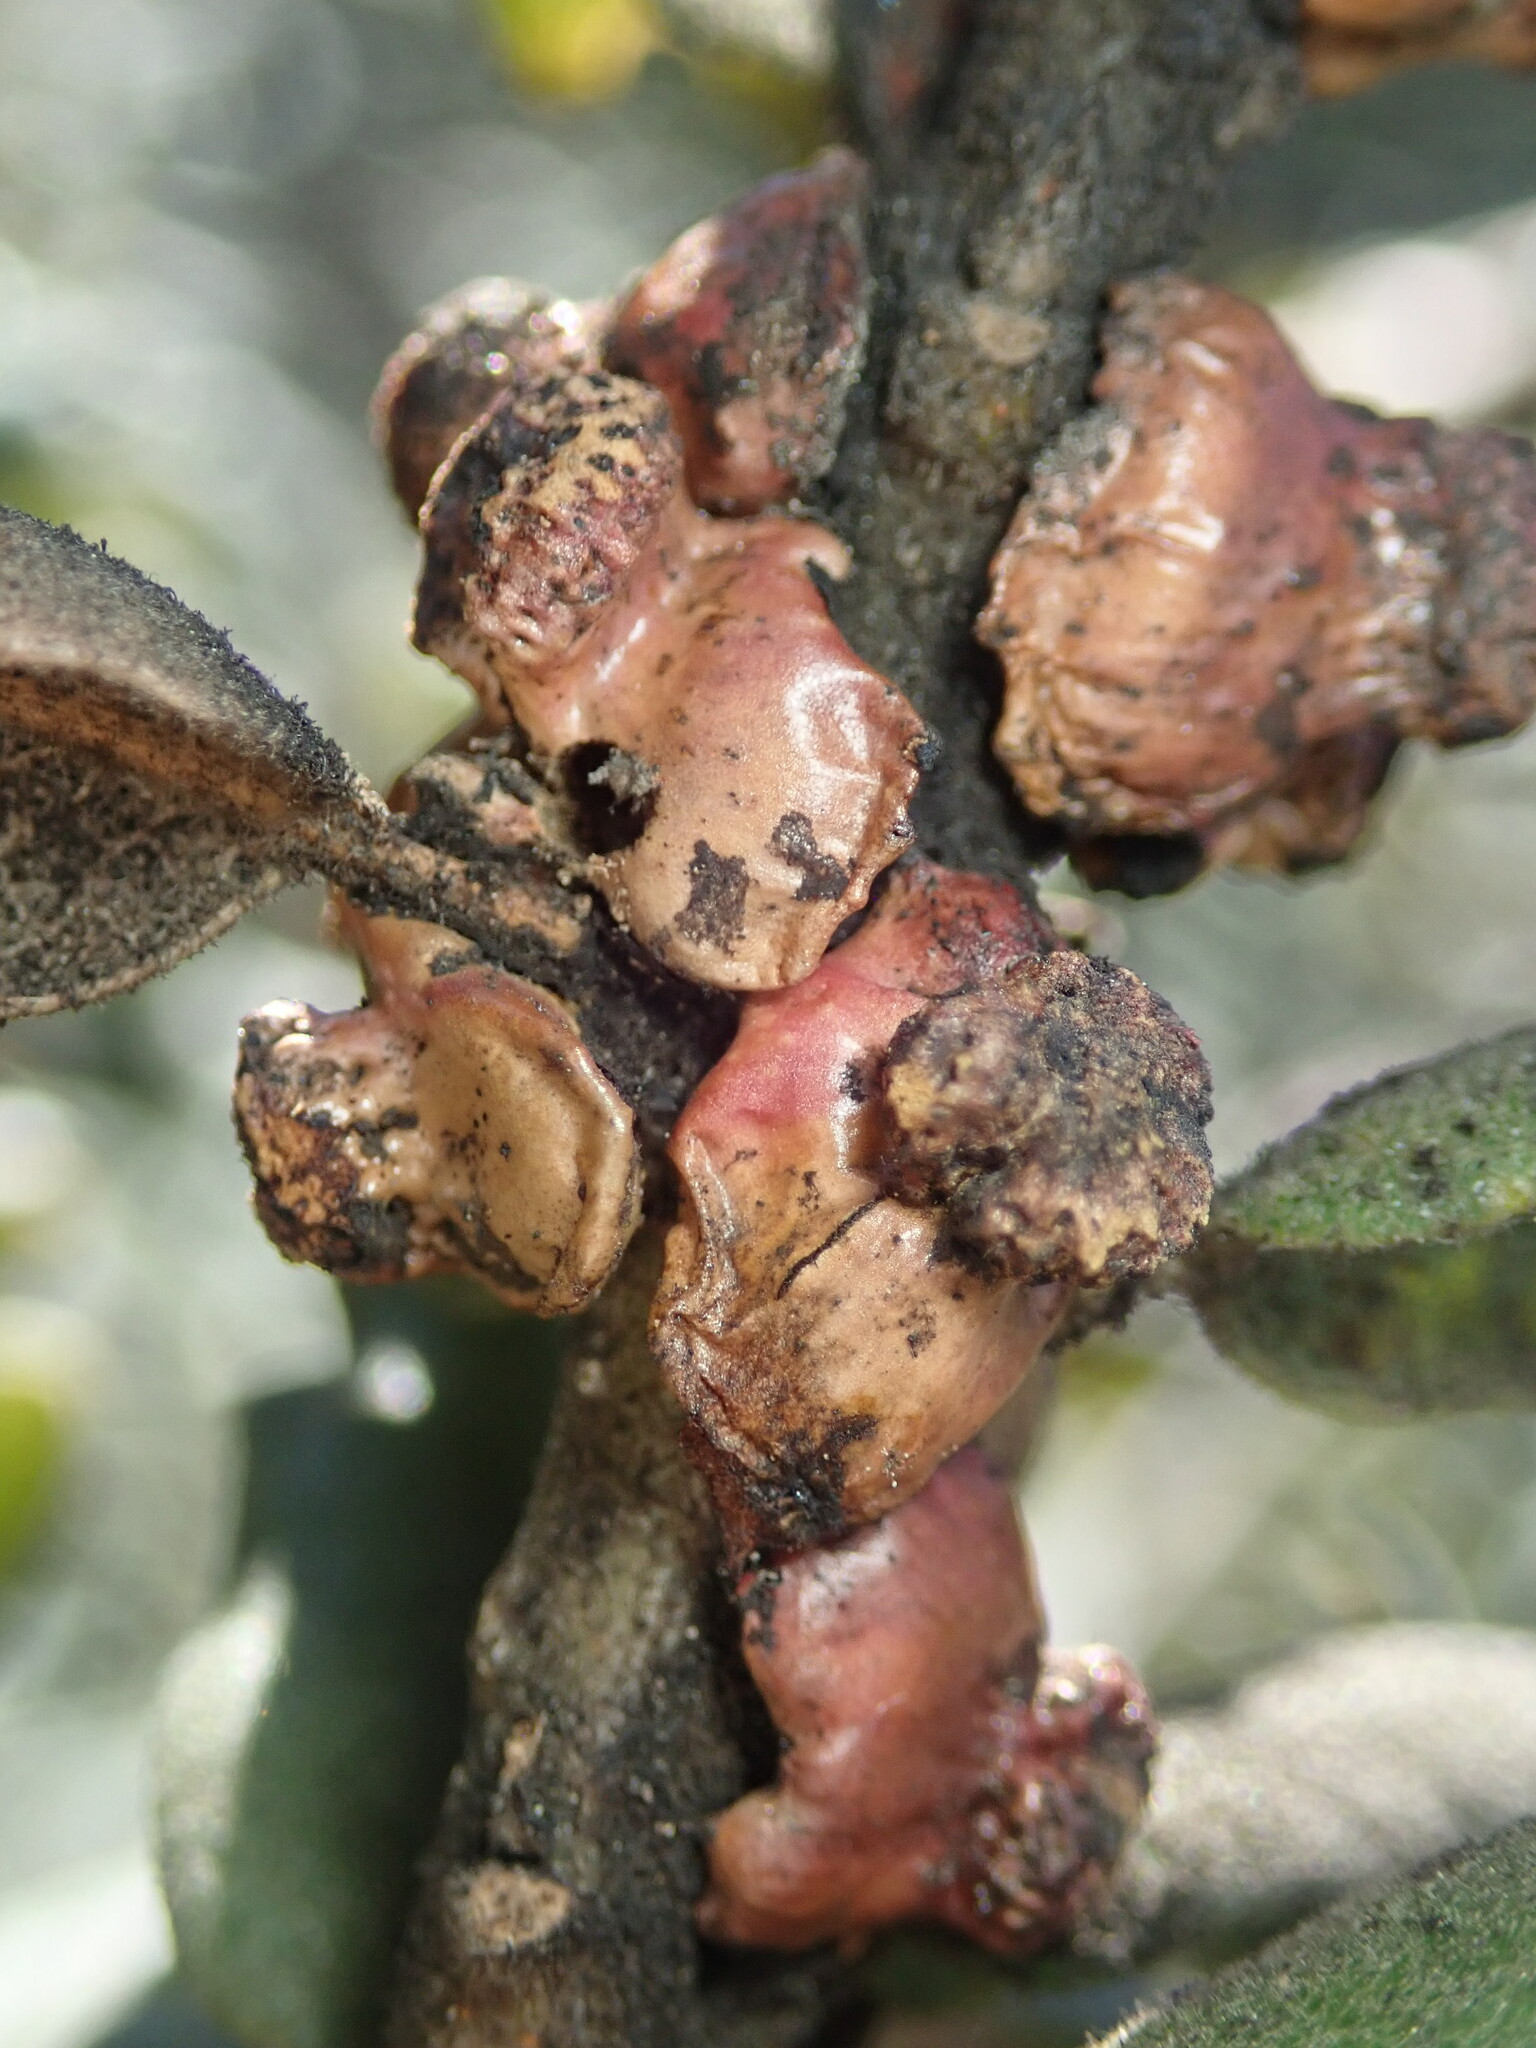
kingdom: Animalia
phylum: Arthropoda
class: Insecta
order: Hymenoptera
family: Cynipidae
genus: Disholcaspis
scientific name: Disholcaspis prehensa
